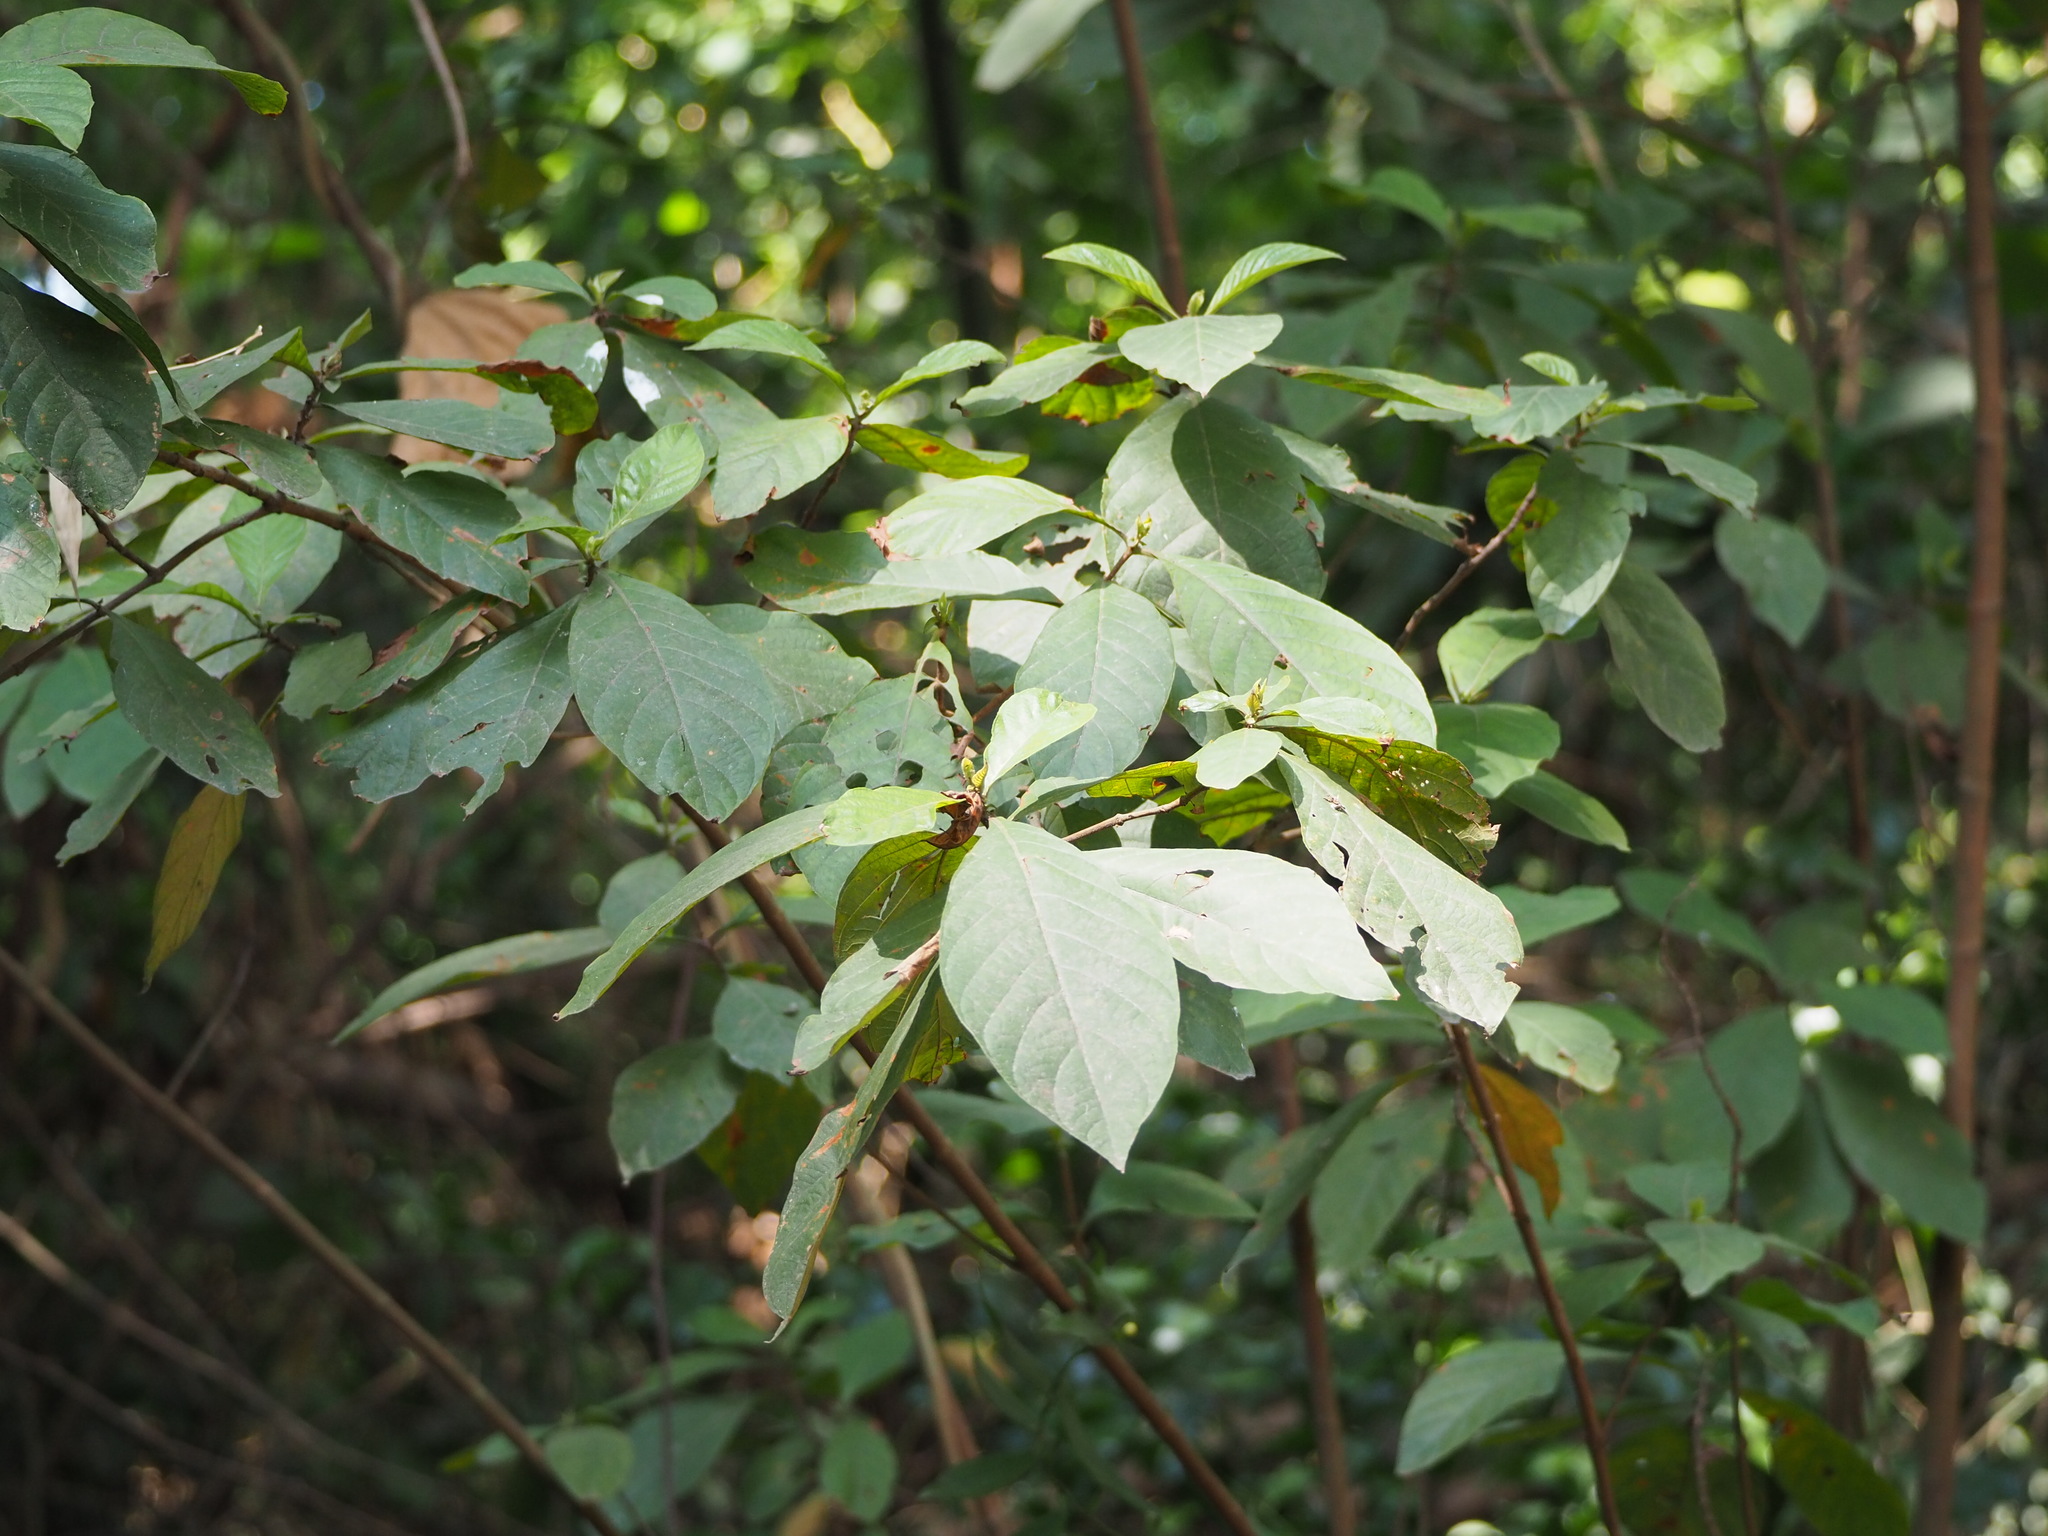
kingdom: Plantae
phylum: Tracheophyta
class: Magnoliopsida
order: Gentianales
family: Rubiaceae
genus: Wendlandia
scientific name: Wendlandia uvariifolia
